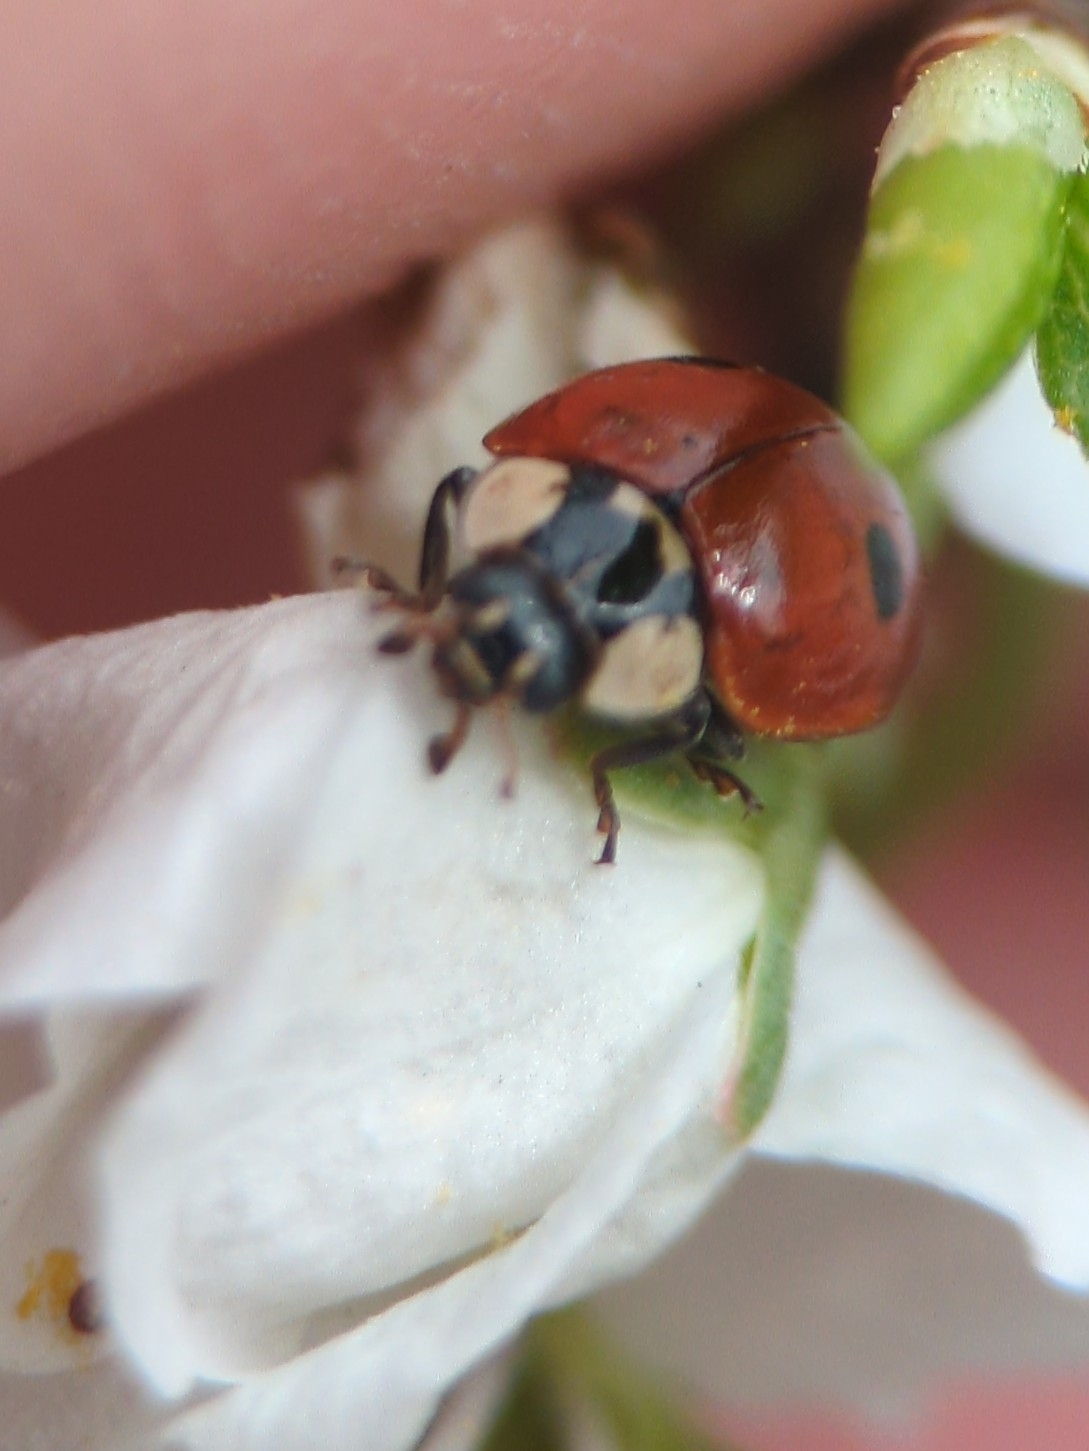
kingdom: Animalia
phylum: Arthropoda
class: Insecta
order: Coleoptera
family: Coccinellidae
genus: Adalia
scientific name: Adalia bipunctata
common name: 2-spot ladybird
